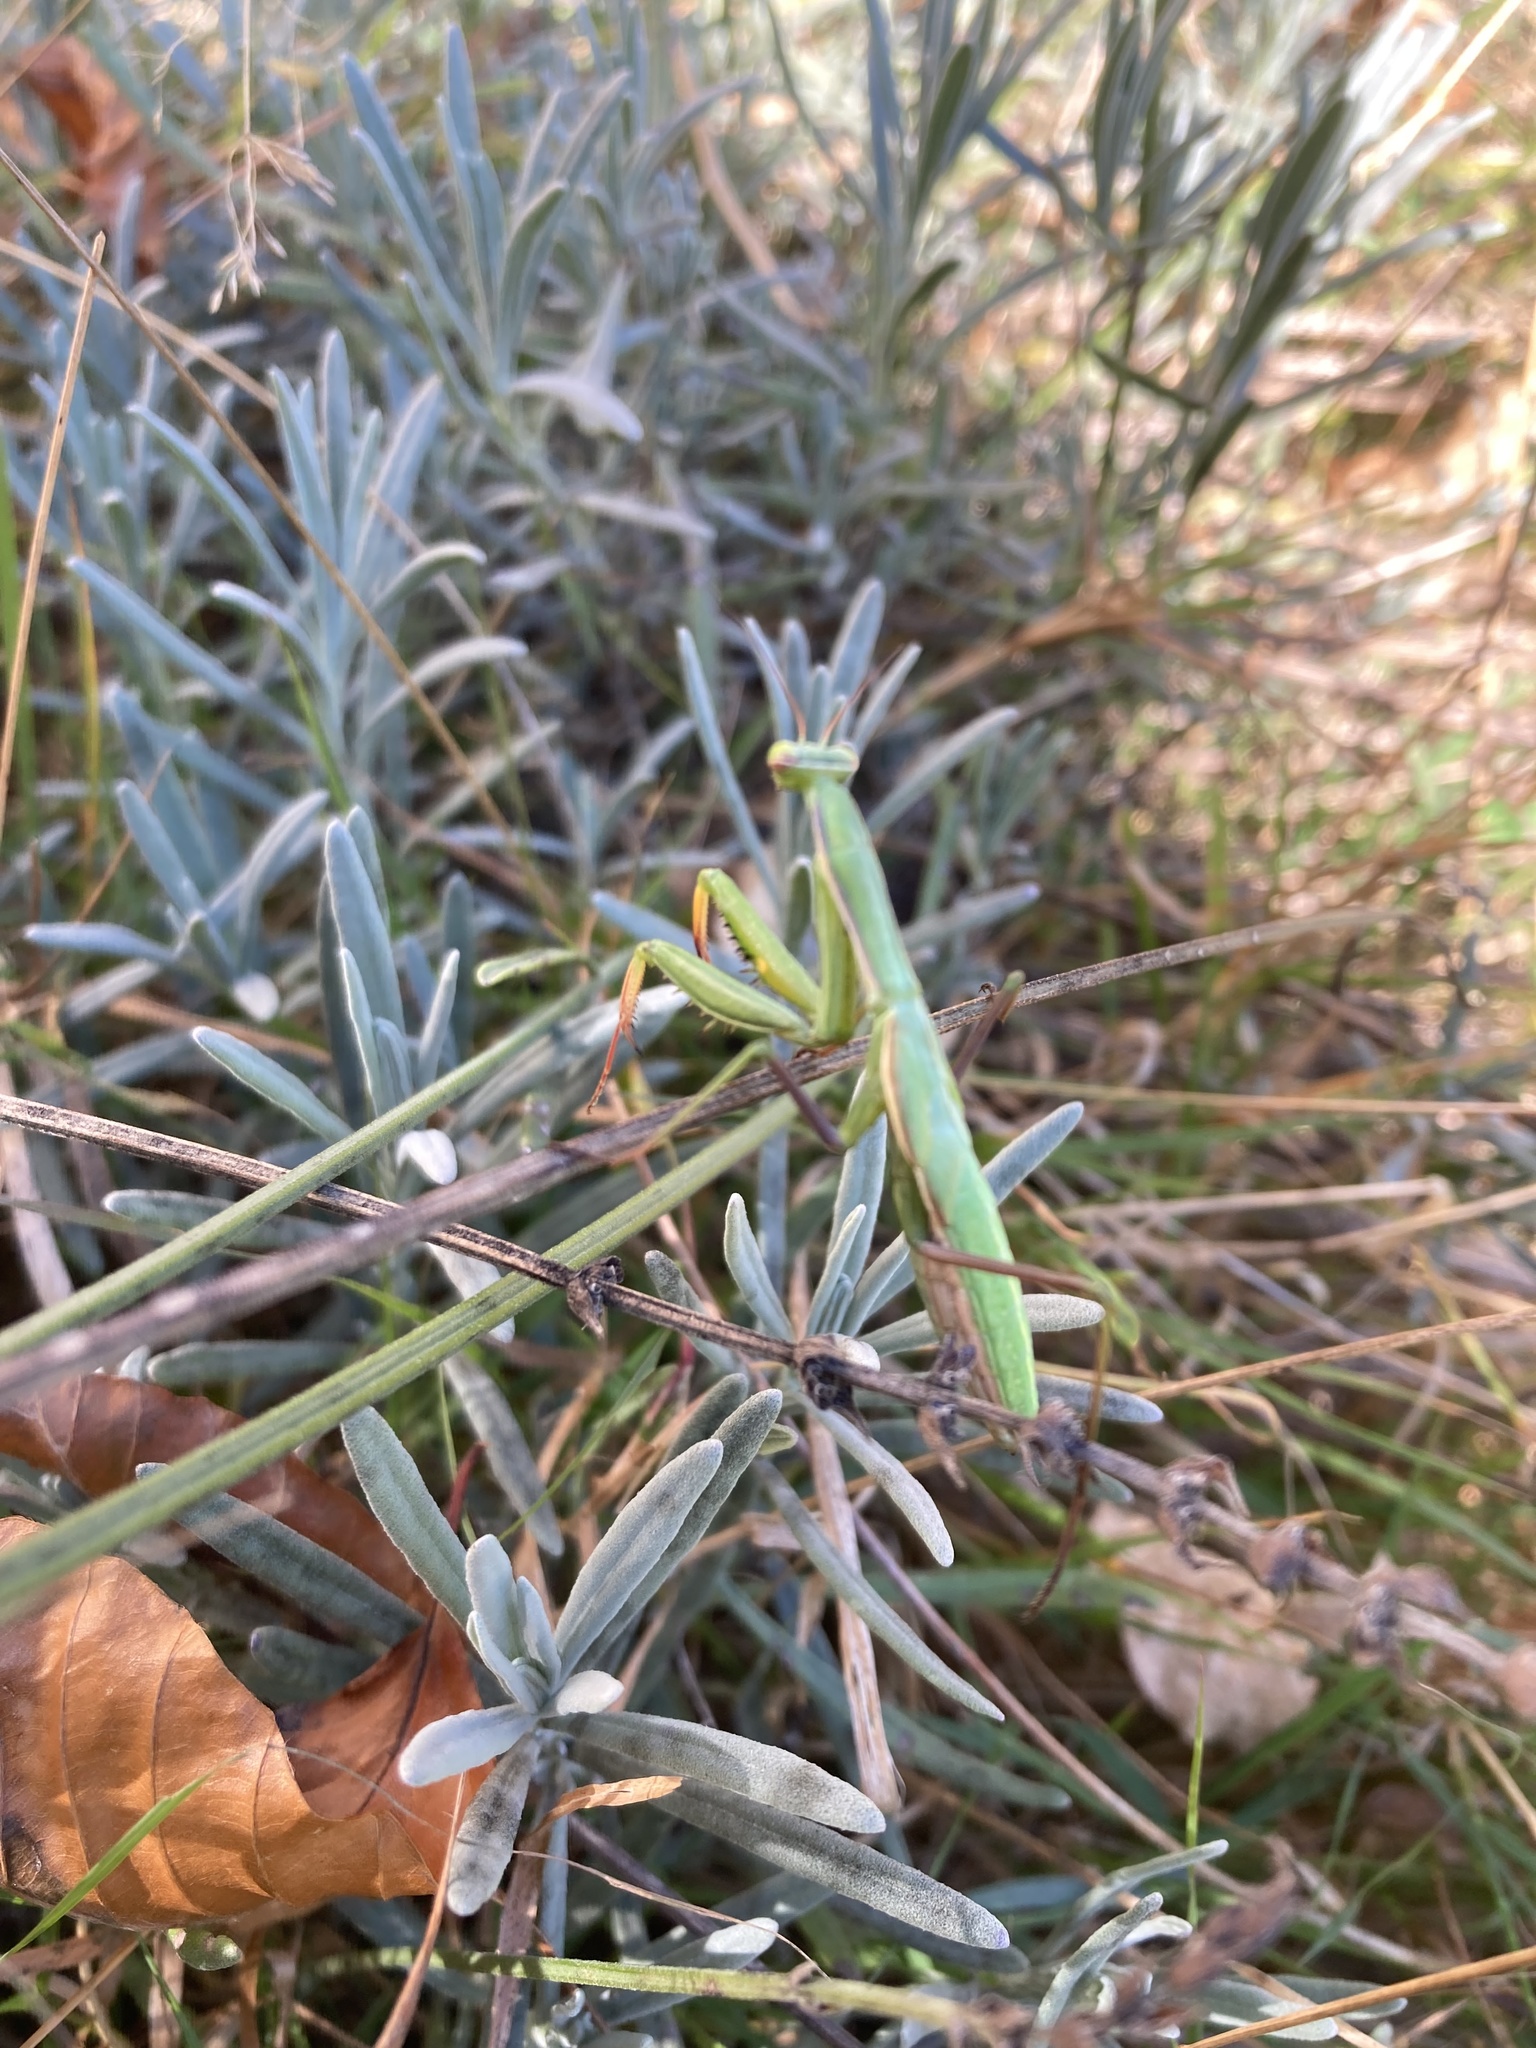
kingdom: Animalia
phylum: Arthropoda
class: Insecta
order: Mantodea
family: Mantidae
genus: Mantis
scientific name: Mantis religiosa
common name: Praying mantis
